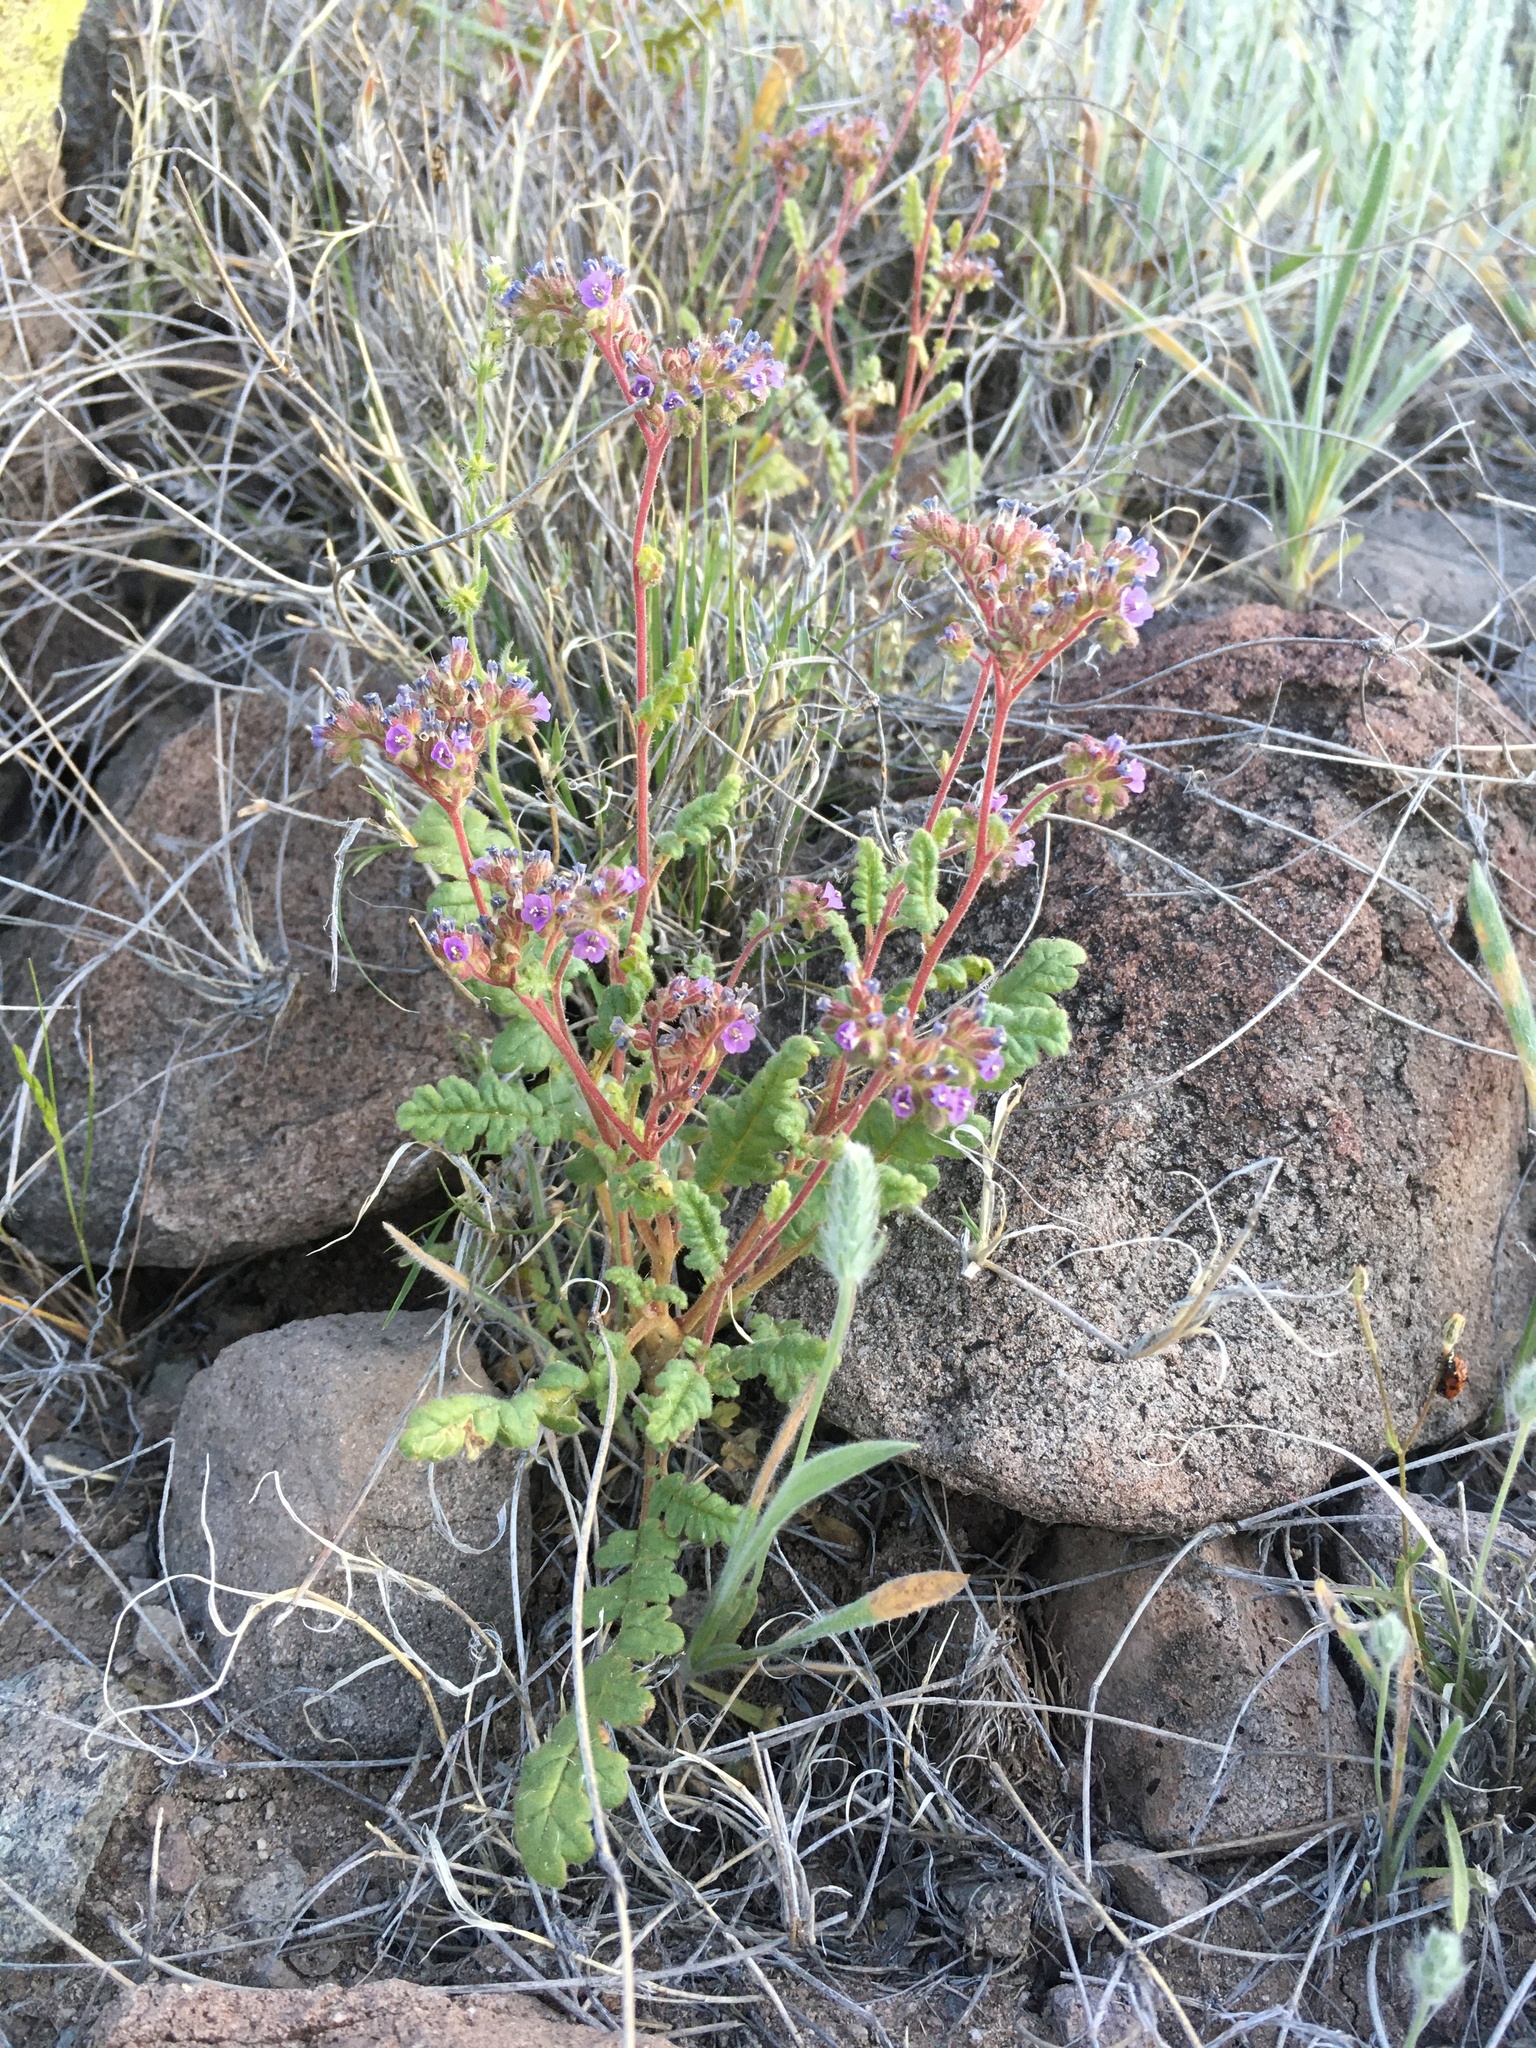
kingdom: Plantae
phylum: Tracheophyta
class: Magnoliopsida
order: Boraginales
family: Hydrophyllaceae
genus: Phacelia
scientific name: Phacelia coerulea
